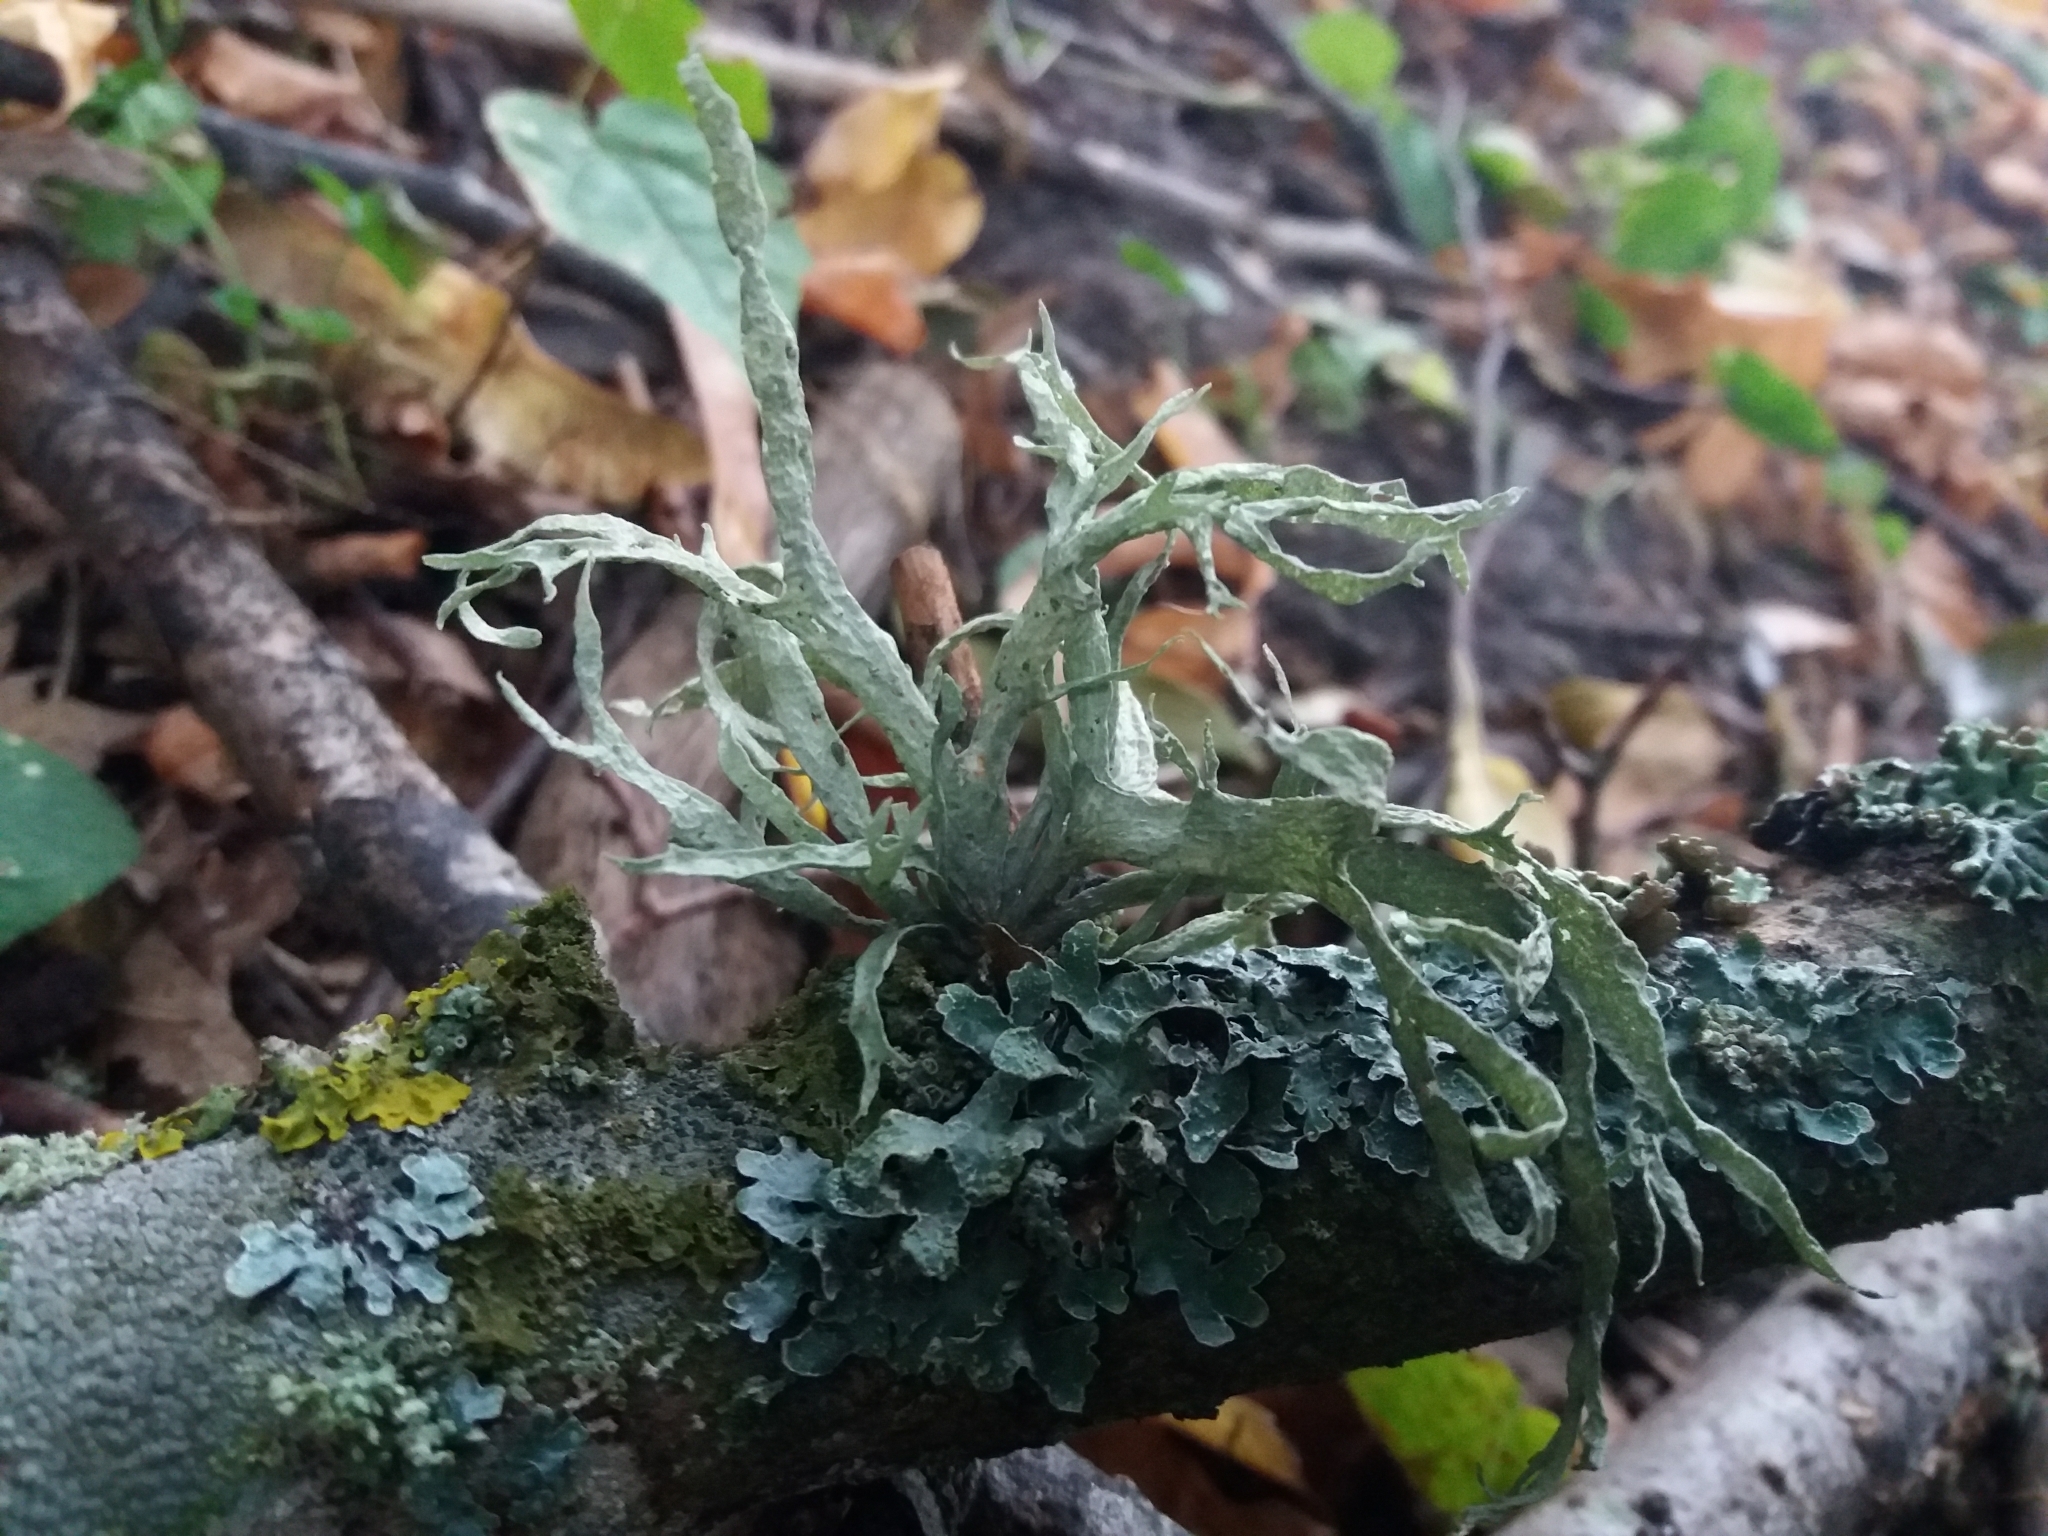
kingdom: Fungi
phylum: Ascomycota
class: Lecanoromycetes
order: Lecanorales
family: Ramalinaceae
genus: Ramalina
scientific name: Ramalina fraxinea
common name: Cartilage lichen
